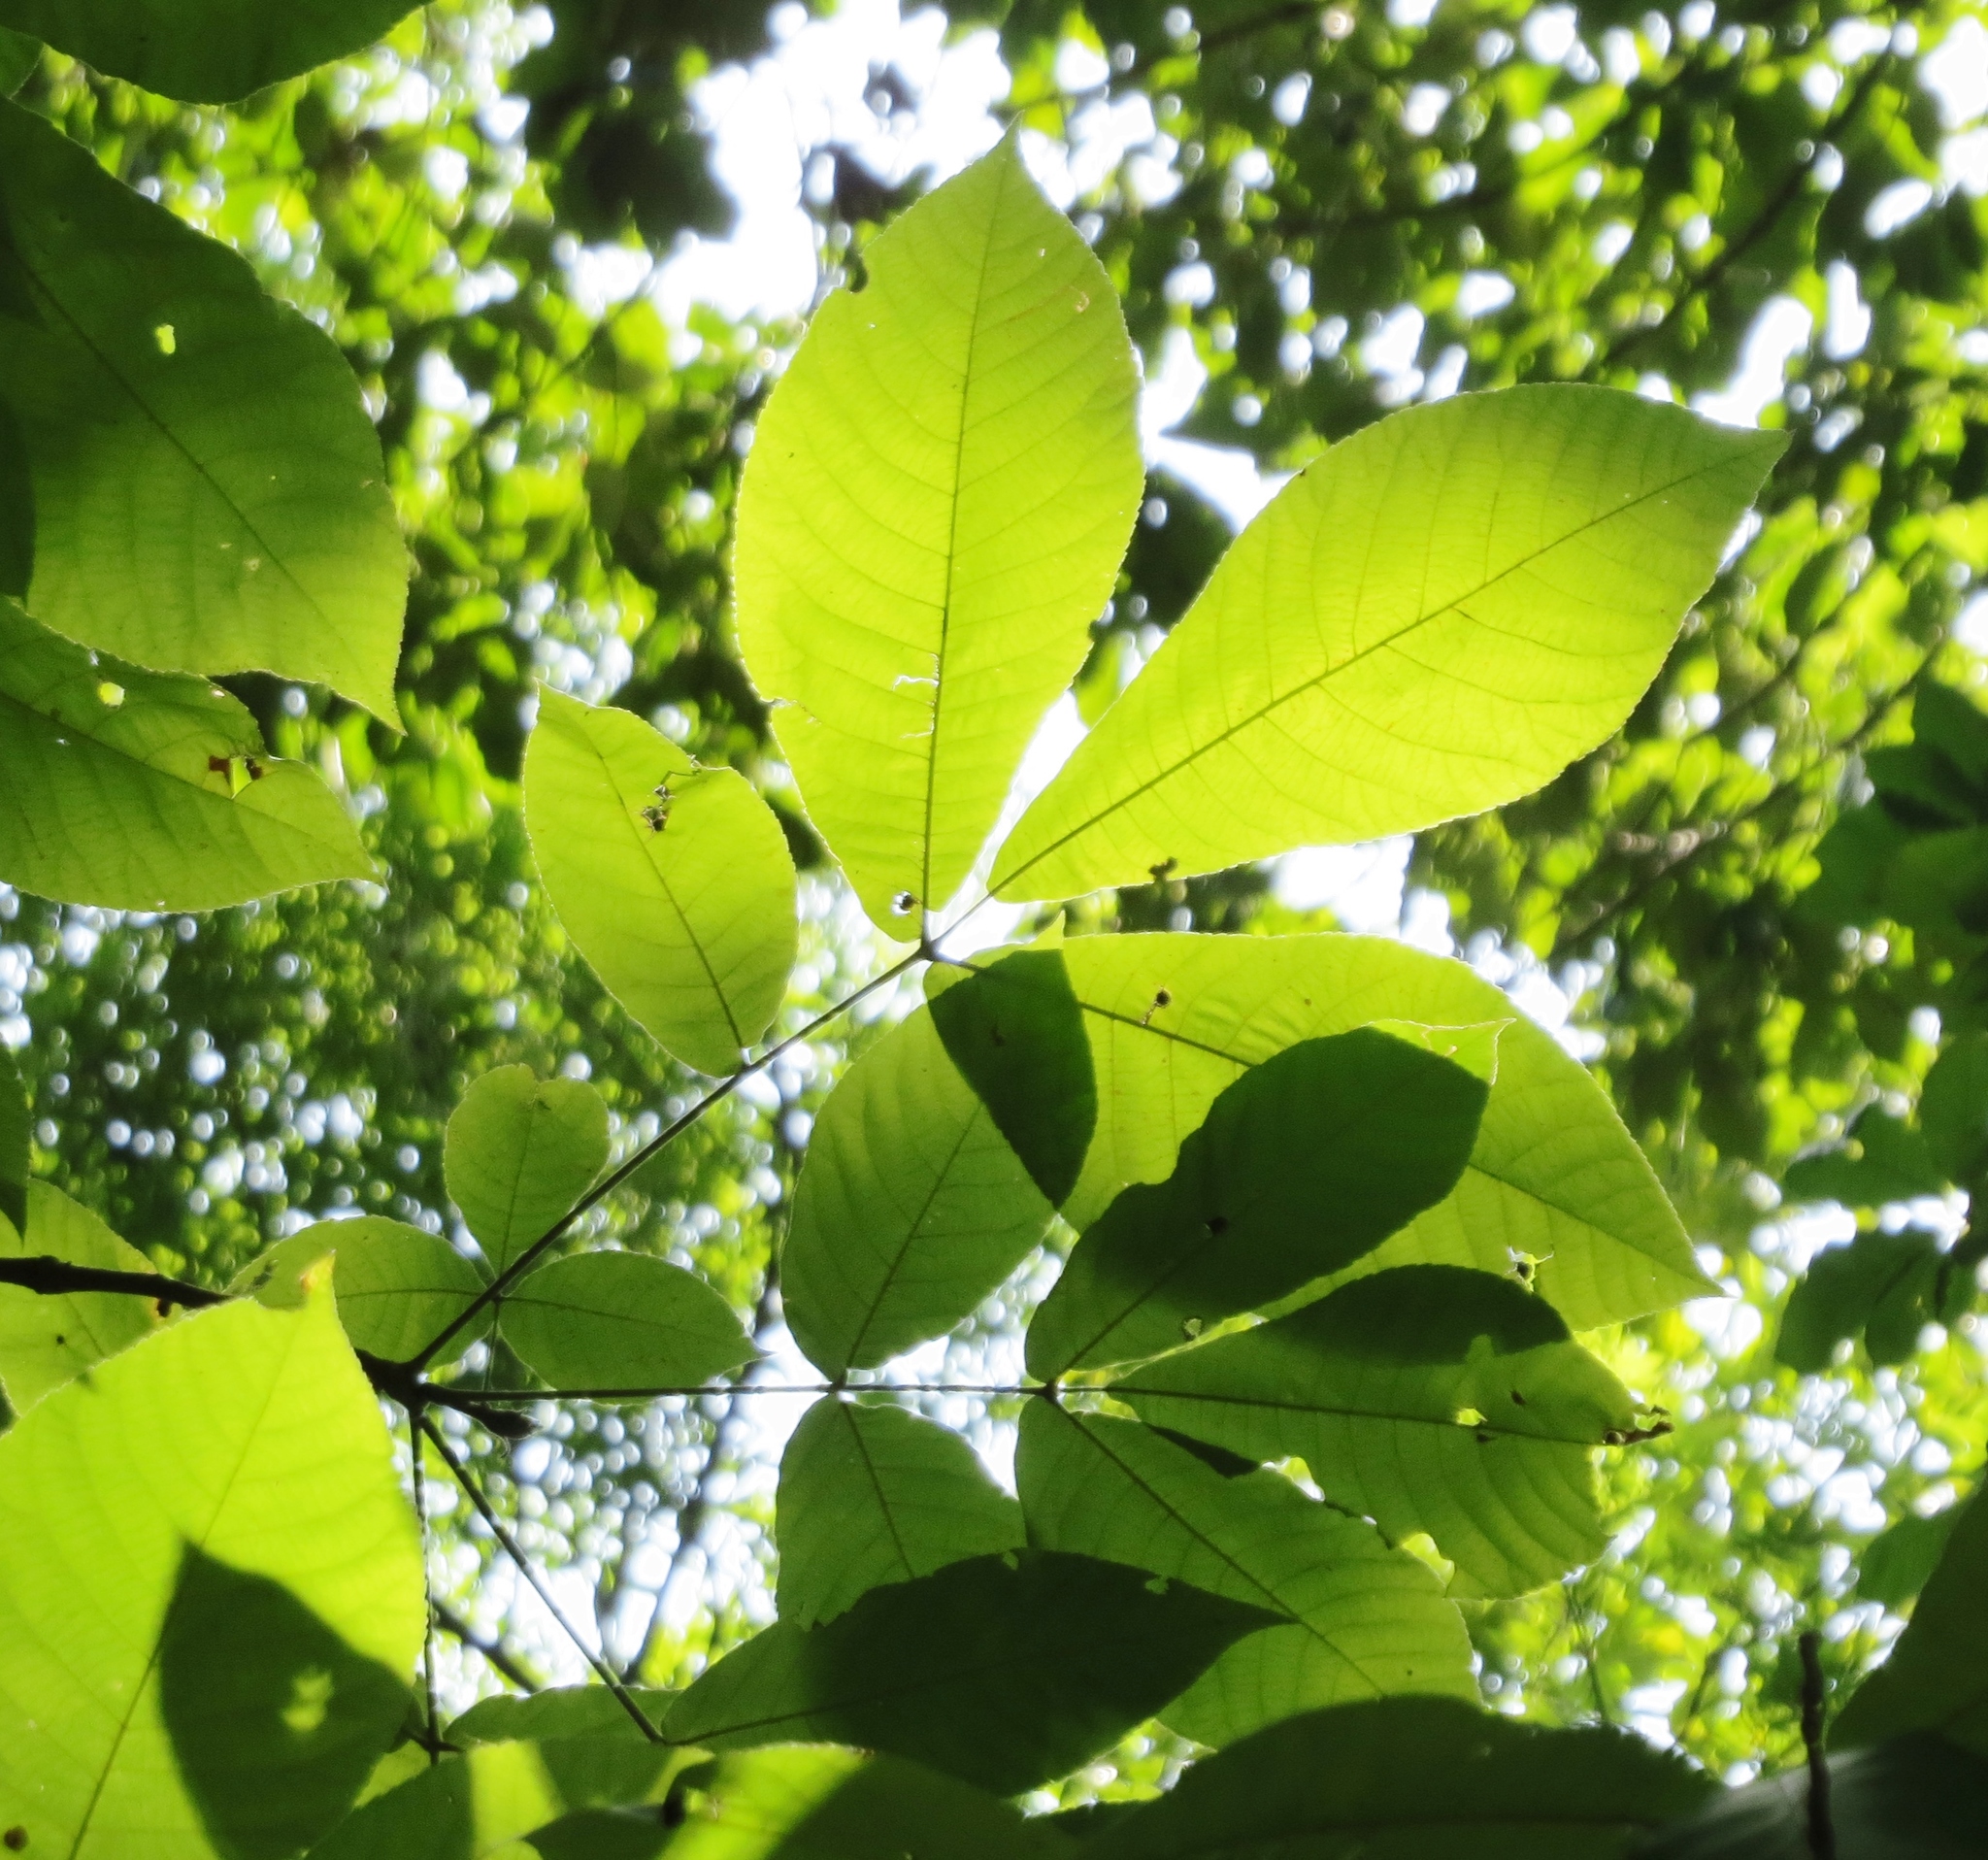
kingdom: Plantae
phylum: Tracheophyta
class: Magnoliopsida
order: Fagales
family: Juglandaceae
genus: Carya
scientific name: Carya ovata
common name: Shagbark hickory
